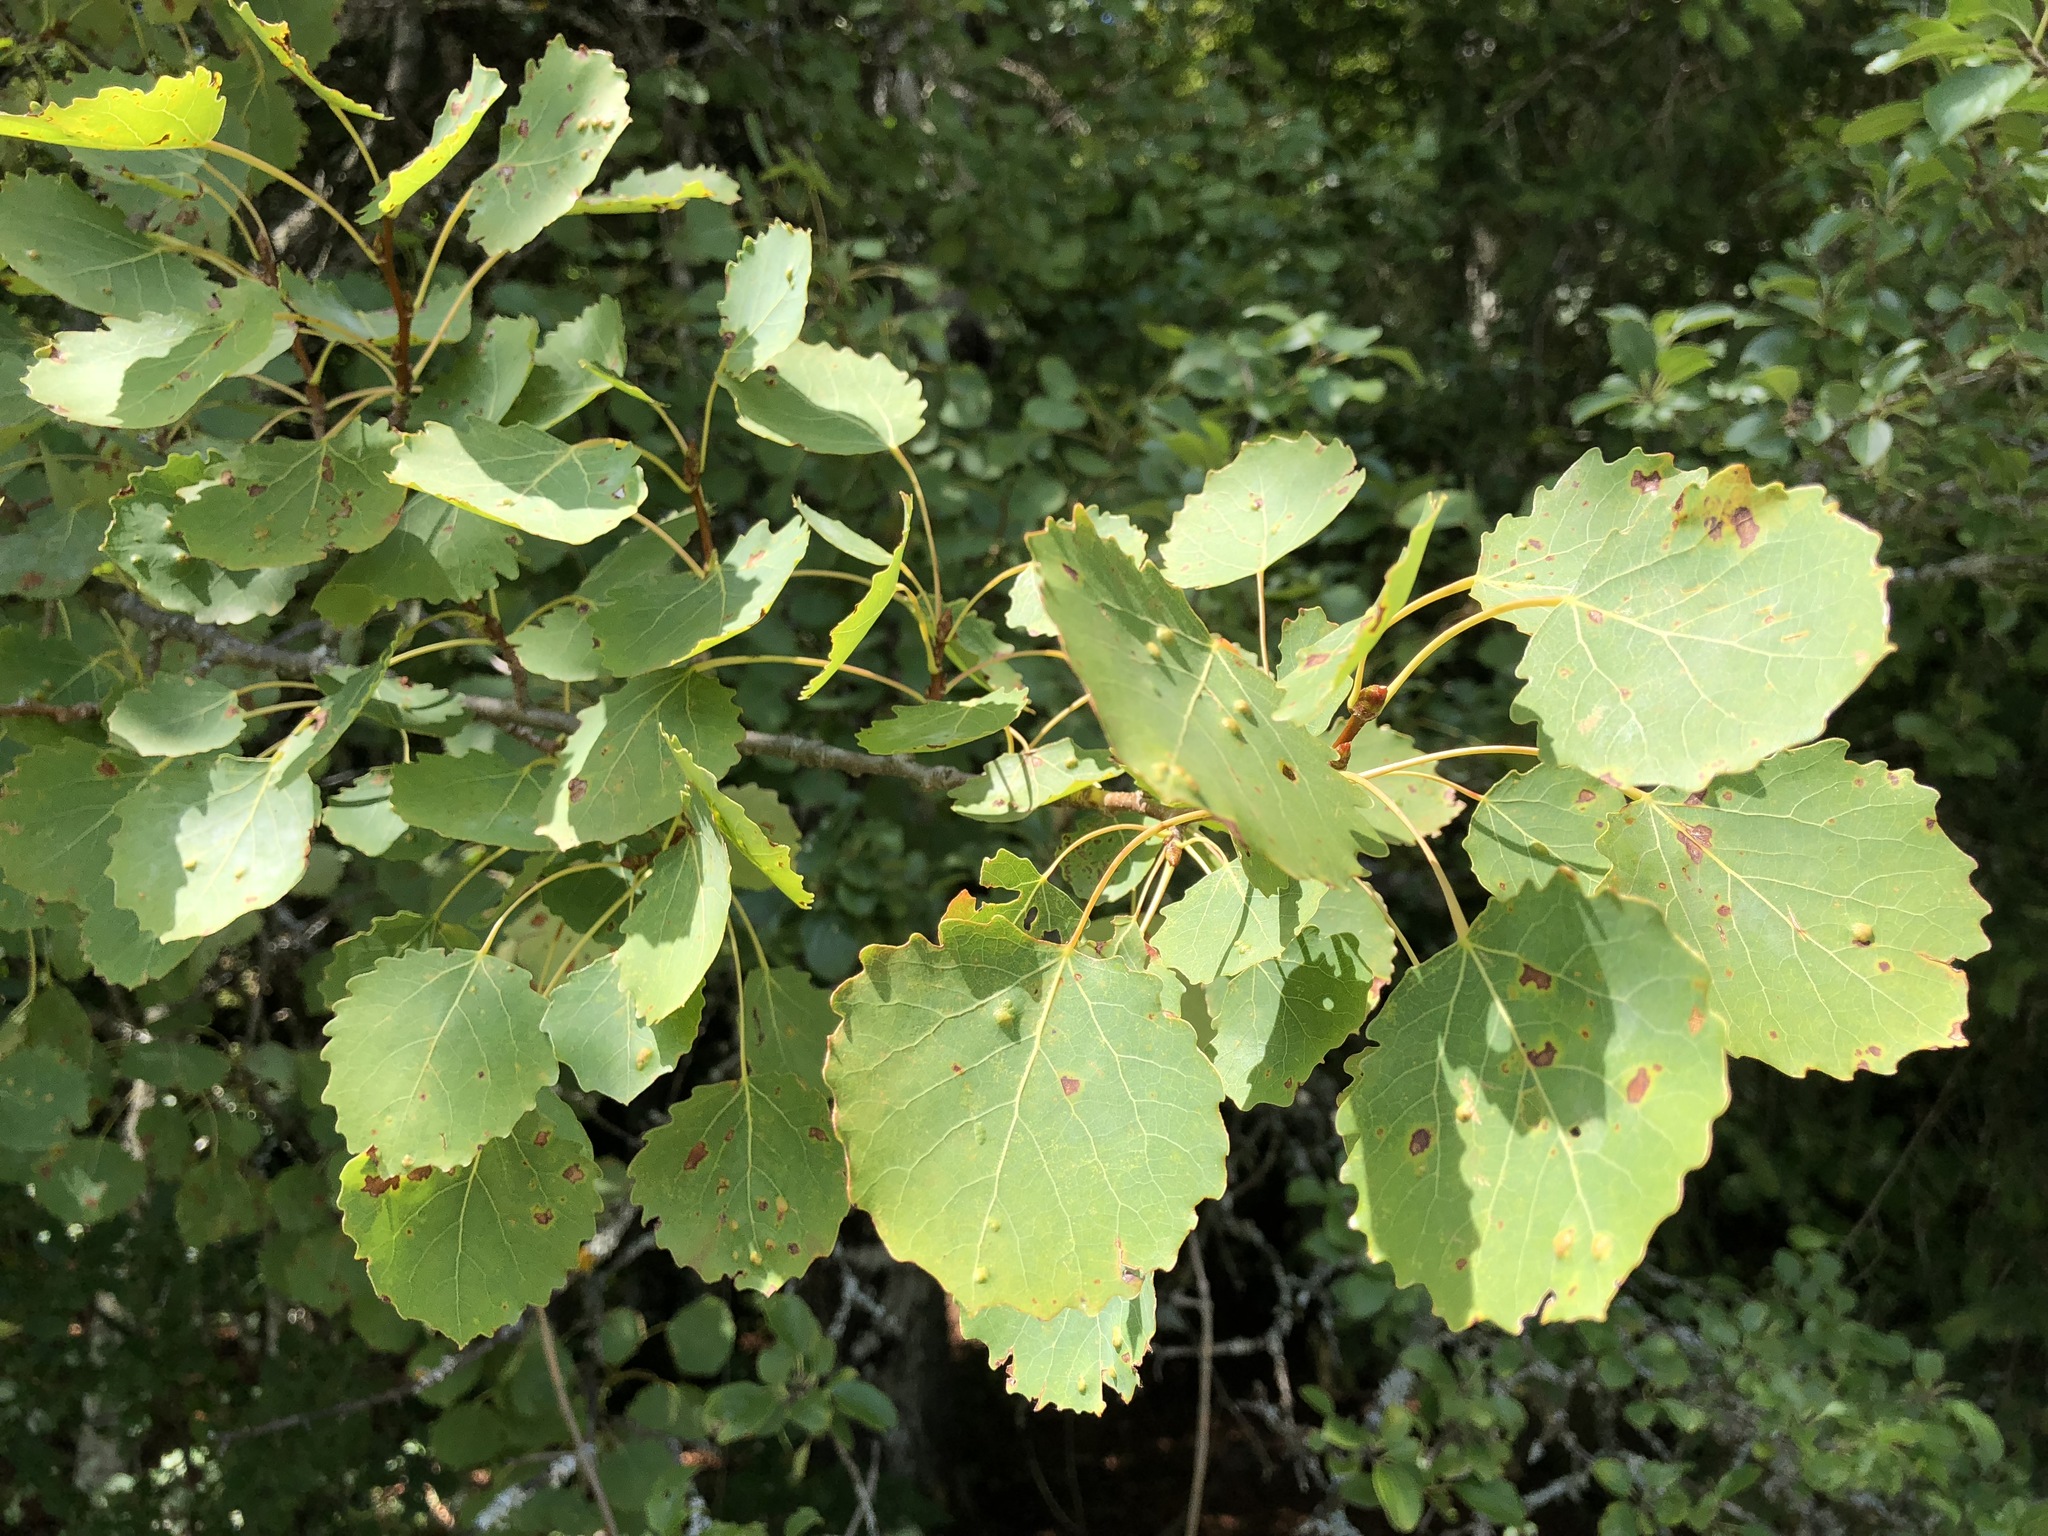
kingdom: Animalia
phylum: Arthropoda
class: Arachnida
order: Trombidiformes
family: Eriophyidae
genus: Phyllocoptes
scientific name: Phyllocoptes populi
